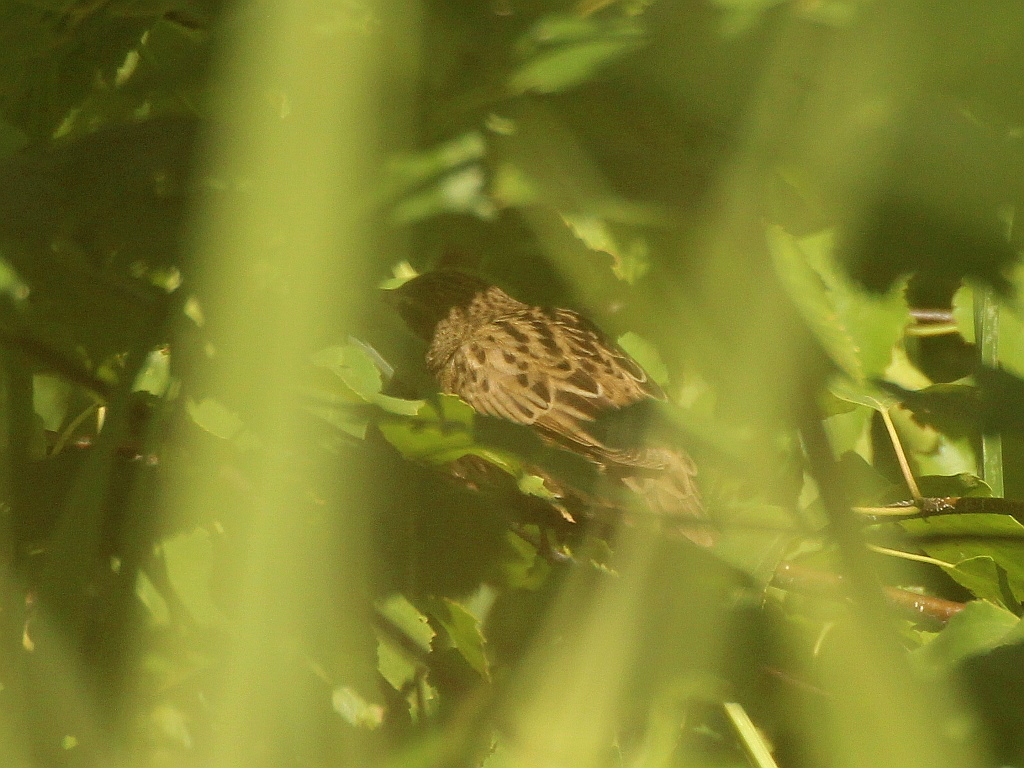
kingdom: Animalia
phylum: Chordata
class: Aves
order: Passeriformes
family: Locustellidae
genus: Locustella
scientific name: Locustella lanceolata
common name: Lanceolated warbler
